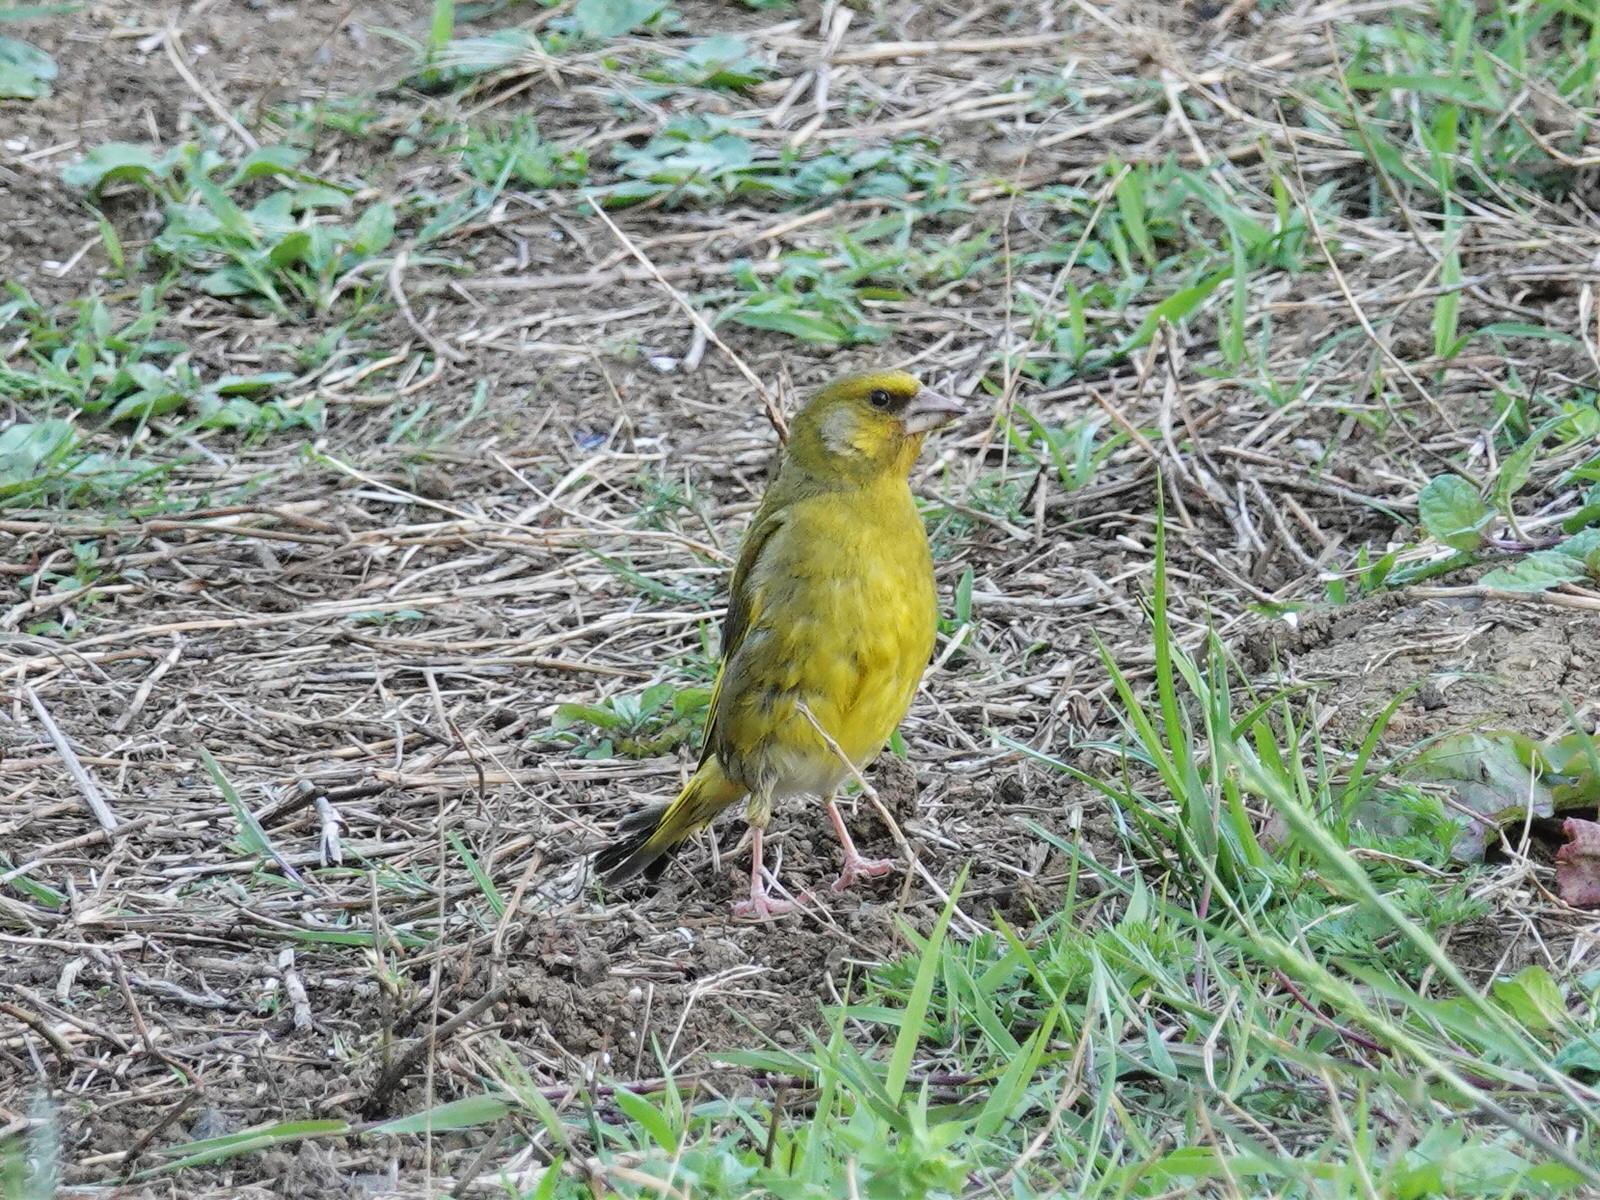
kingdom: Plantae
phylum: Tracheophyta
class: Liliopsida
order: Poales
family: Poaceae
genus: Chloris
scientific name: Chloris chloris
